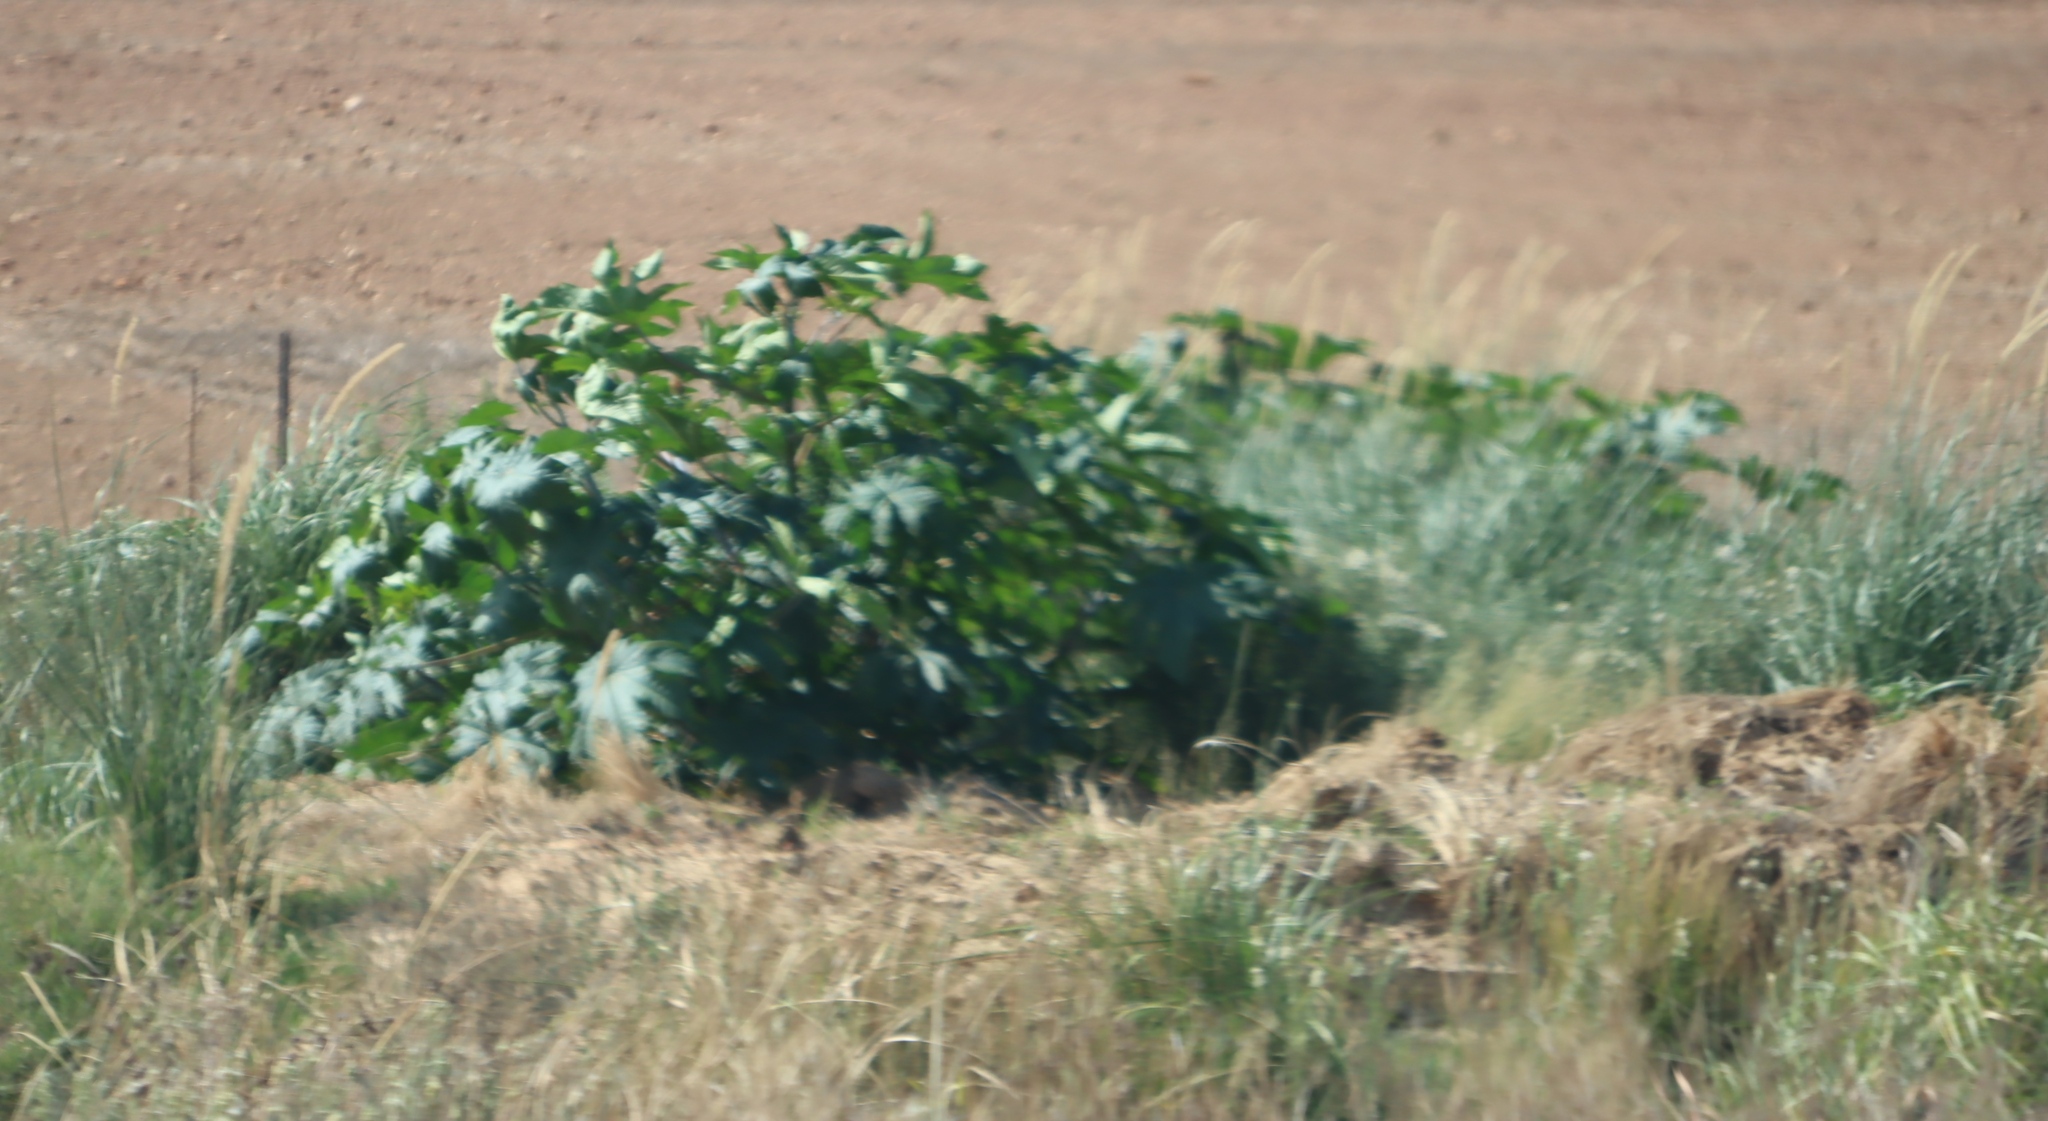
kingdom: Plantae
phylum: Tracheophyta
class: Magnoliopsida
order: Malpighiales
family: Euphorbiaceae
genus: Ricinus
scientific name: Ricinus communis
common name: Castor-oil-plant
